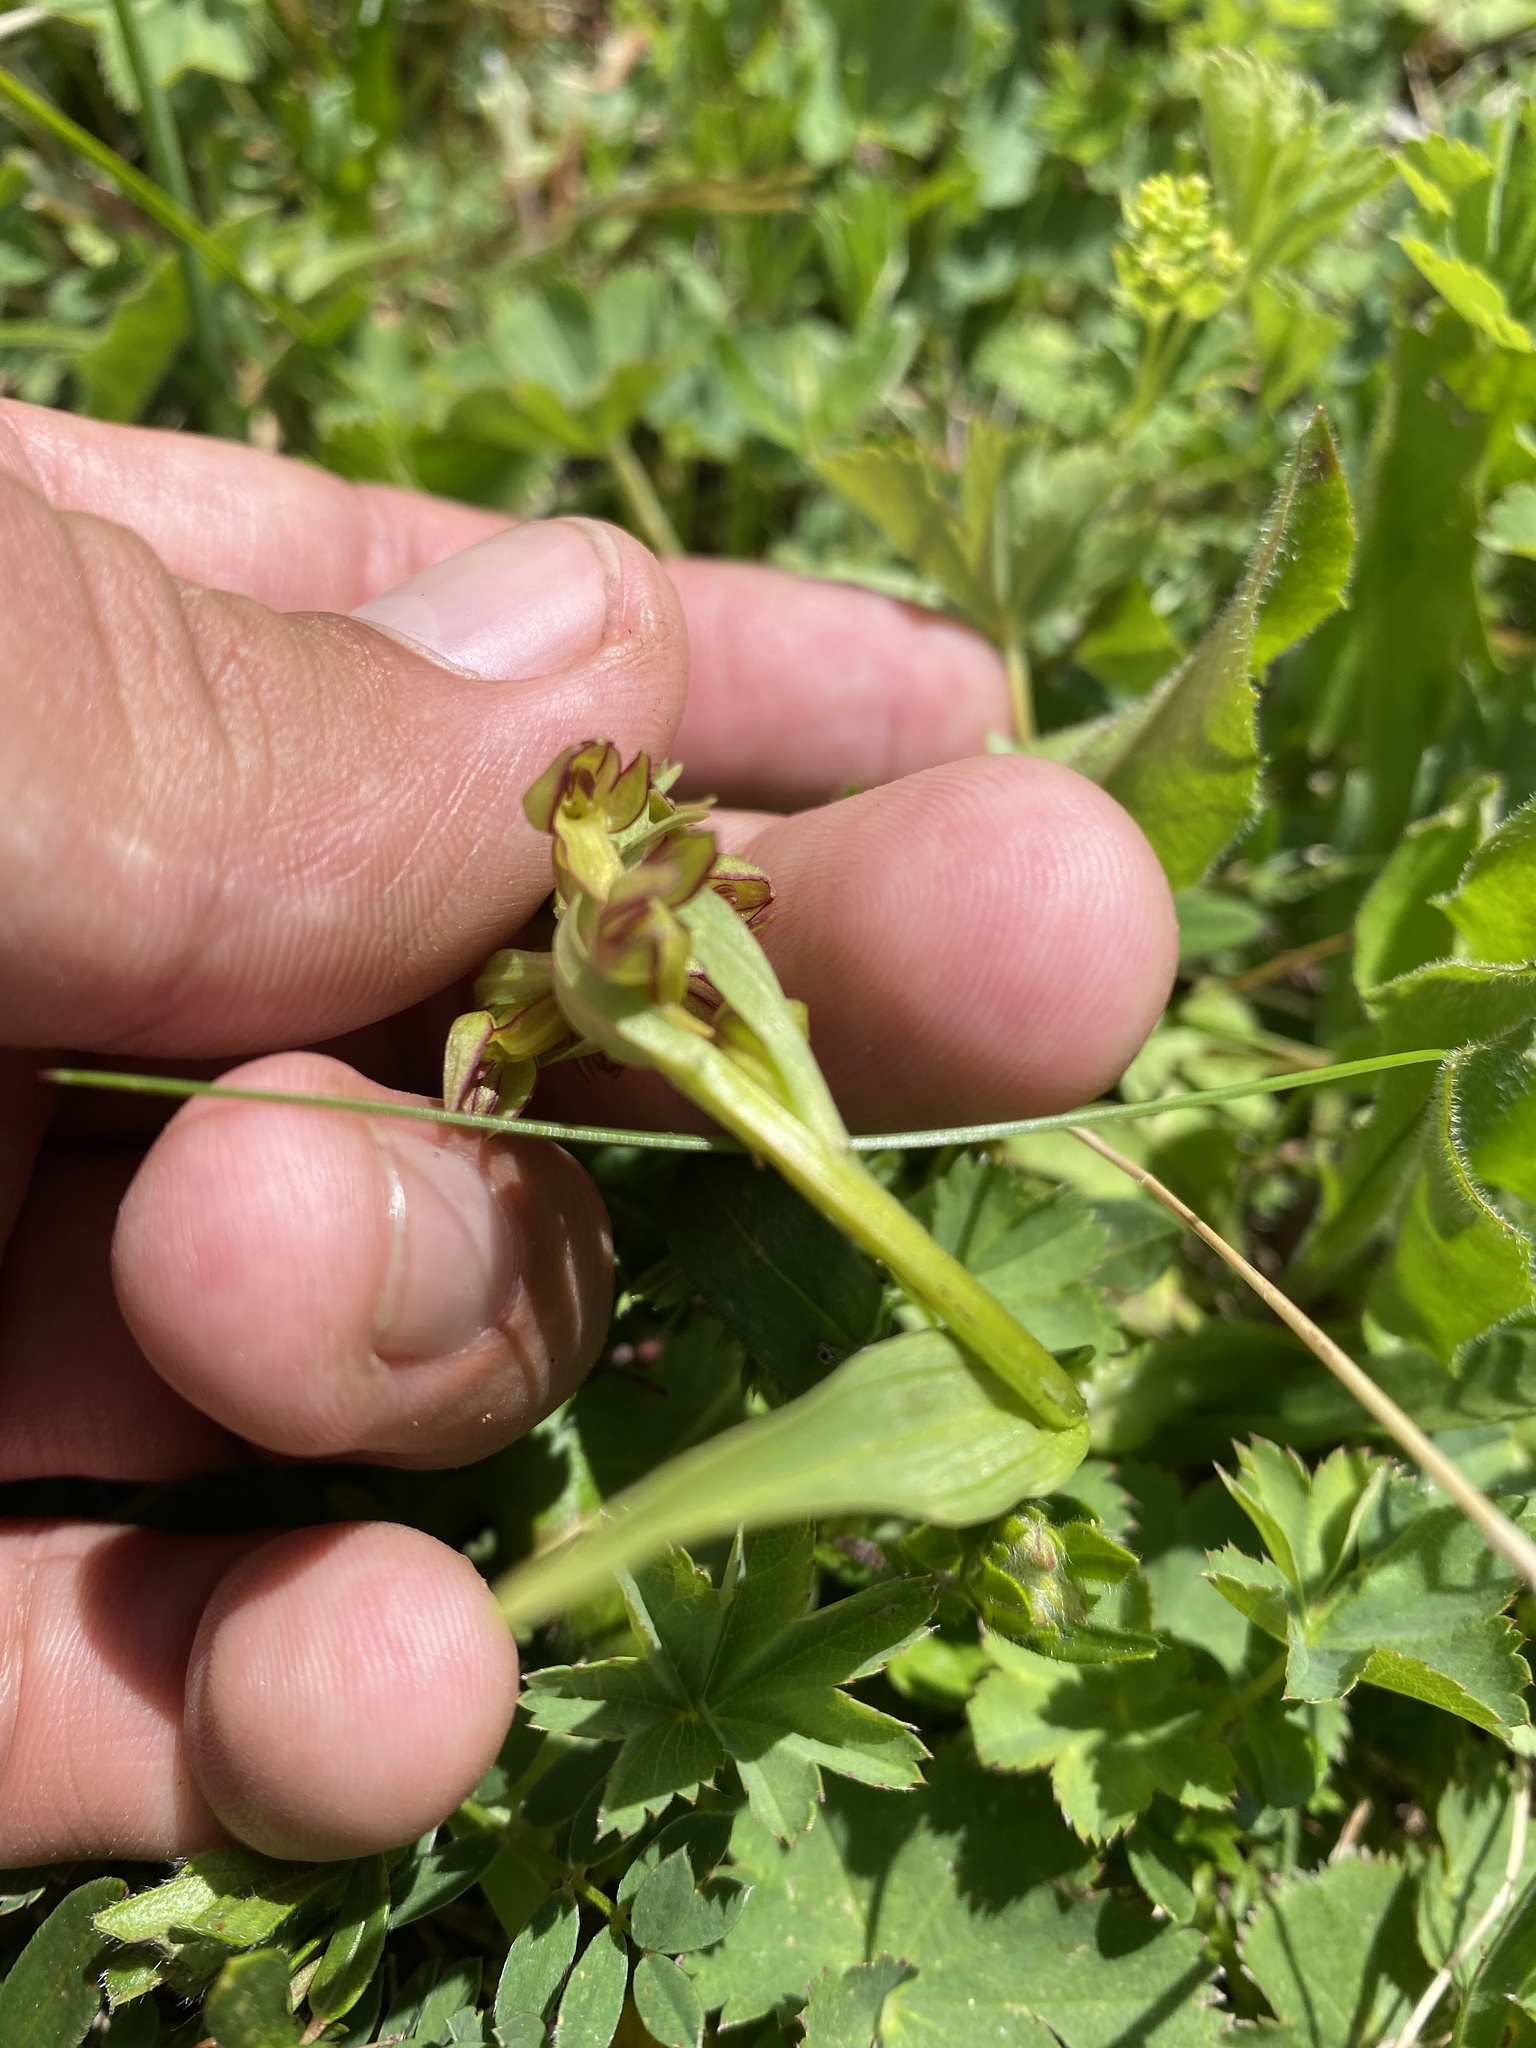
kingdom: Plantae
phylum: Tracheophyta
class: Liliopsida
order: Asparagales
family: Orchidaceae
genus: Dactylorhiza
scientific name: Dactylorhiza viridis
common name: Longbract frog orchid
